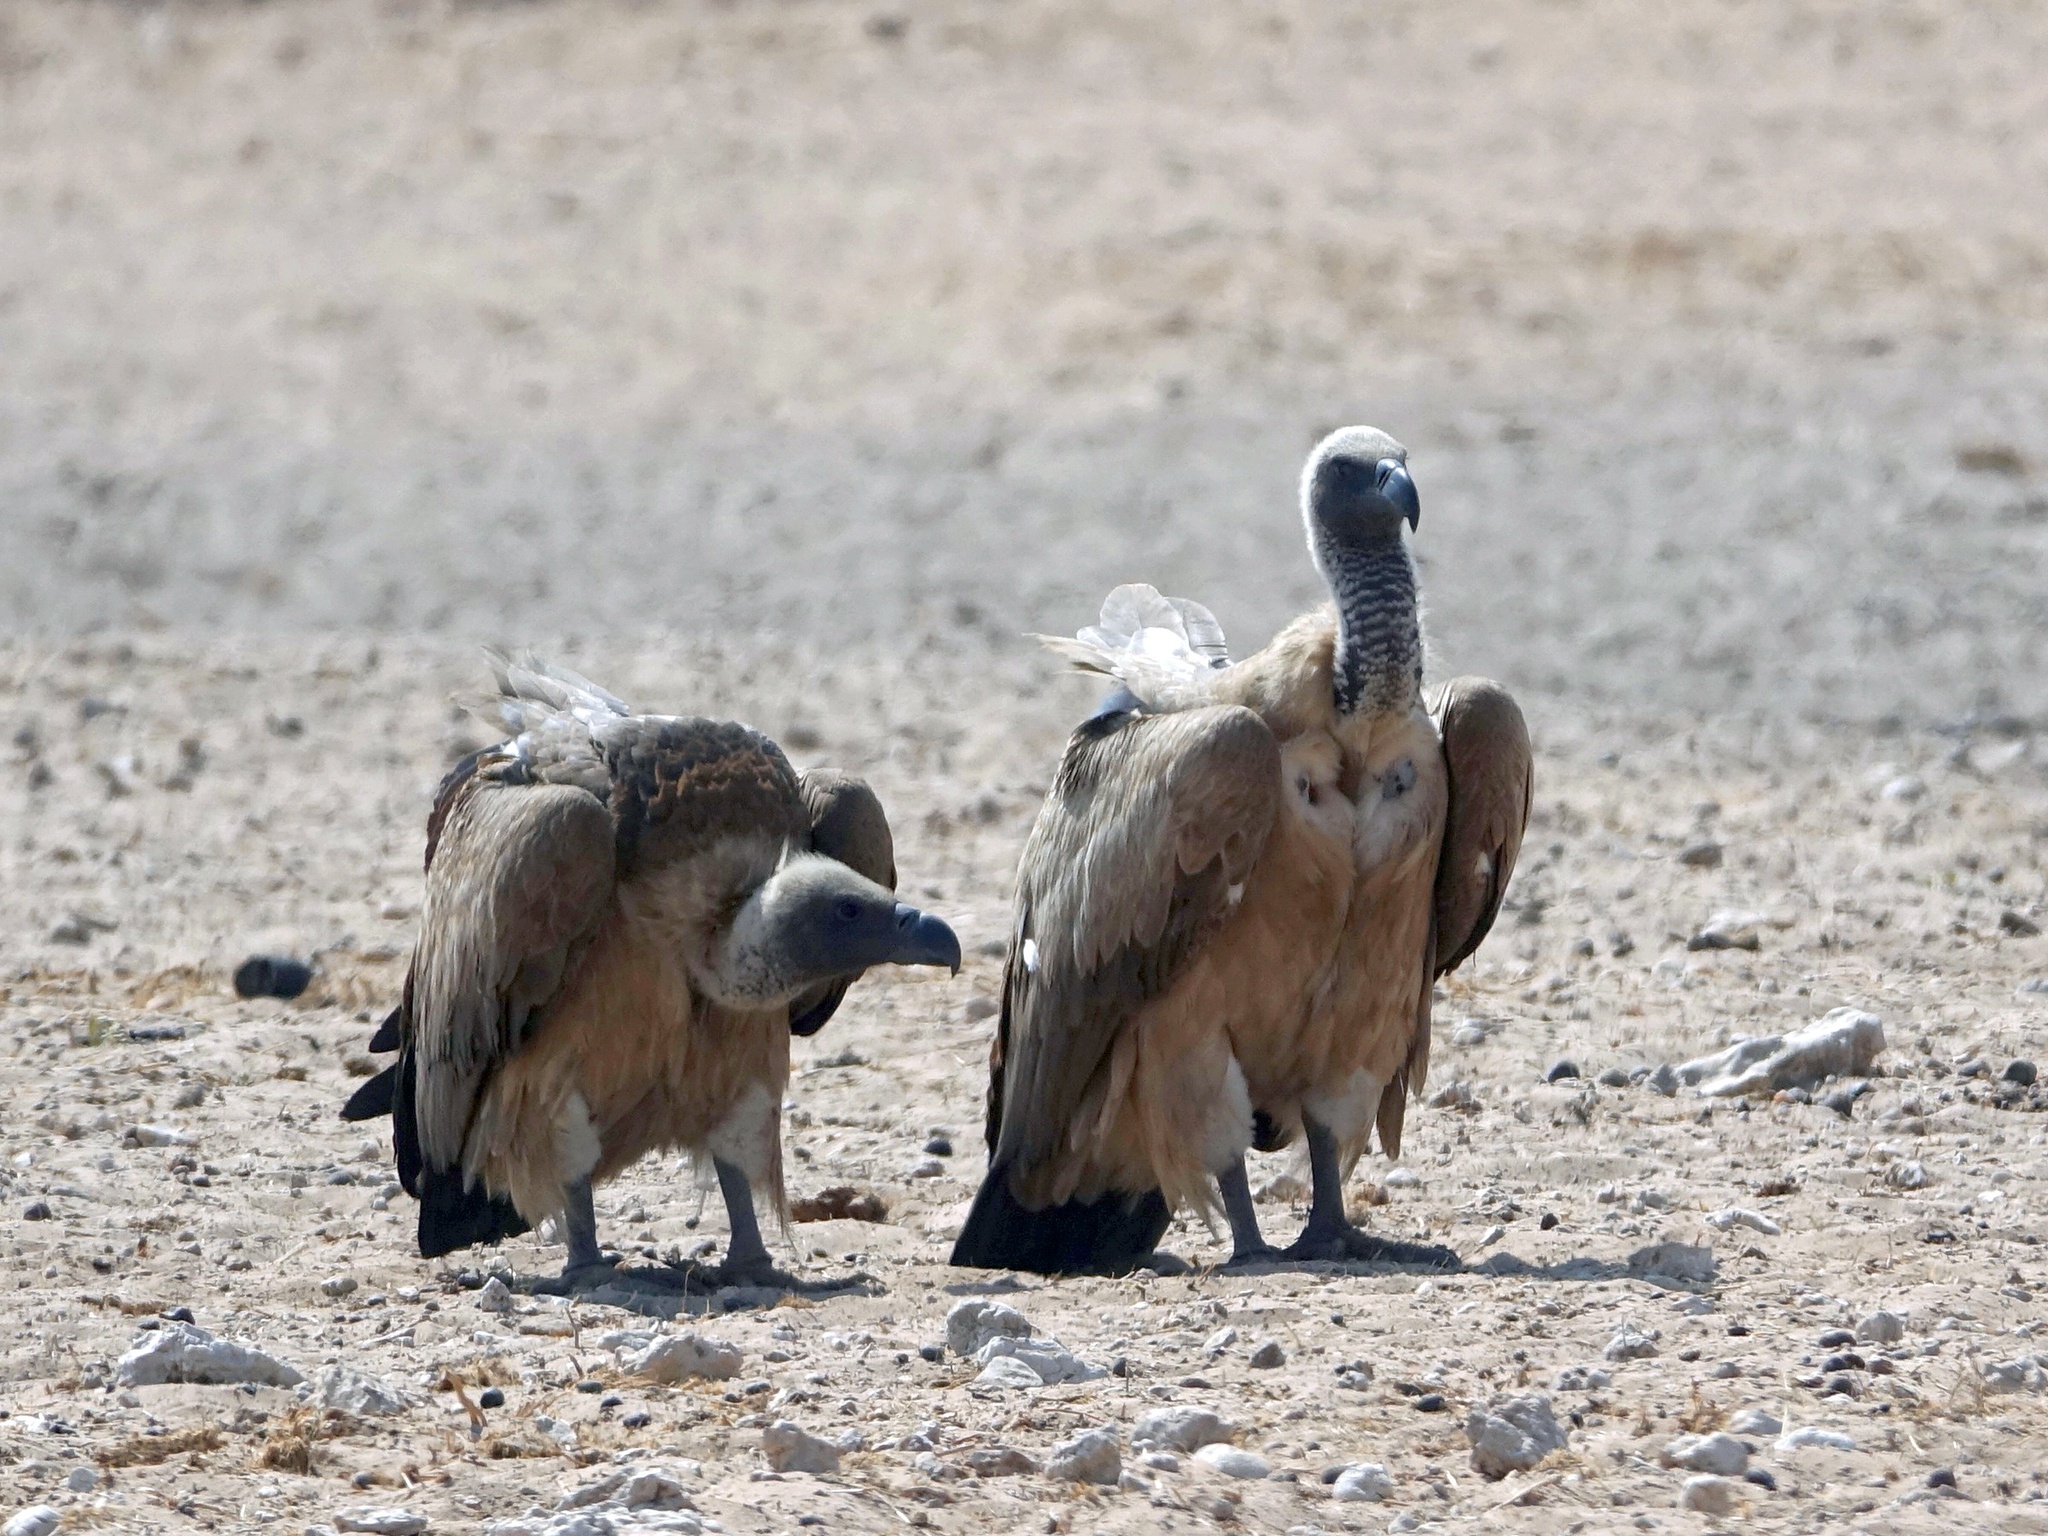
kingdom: Animalia
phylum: Chordata
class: Aves
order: Accipitriformes
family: Accipitridae
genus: Gyps
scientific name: Gyps africanus
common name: White-backed vulture
